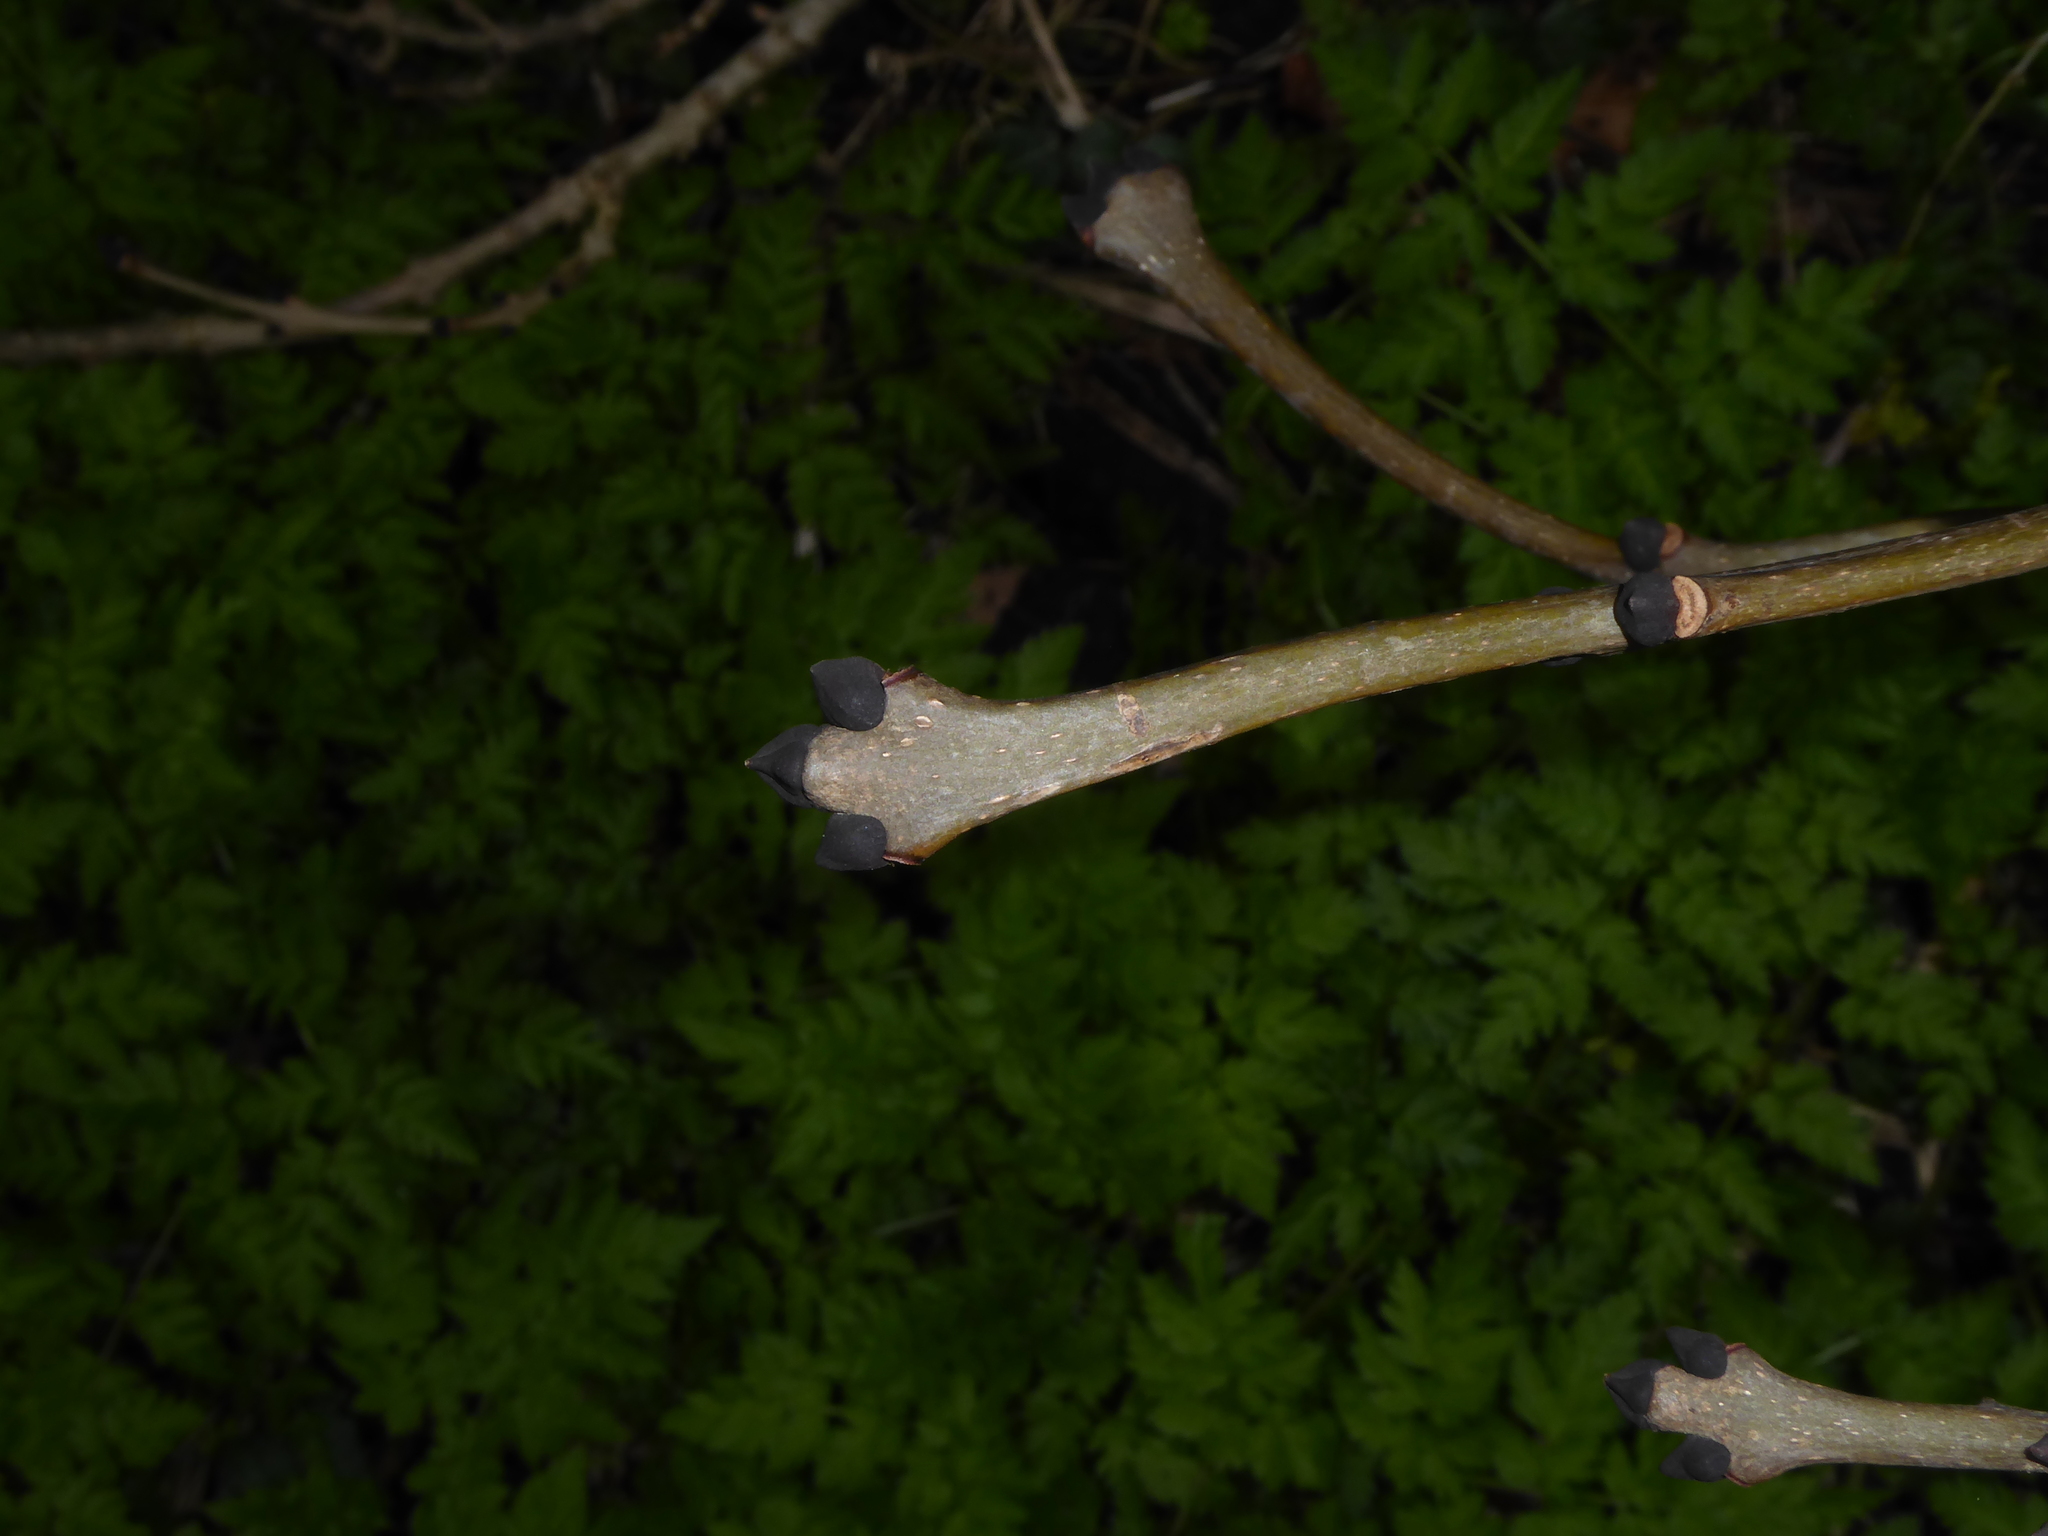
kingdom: Plantae
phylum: Tracheophyta
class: Magnoliopsida
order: Lamiales
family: Oleaceae
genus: Fraxinus
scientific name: Fraxinus excelsior
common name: European ash
